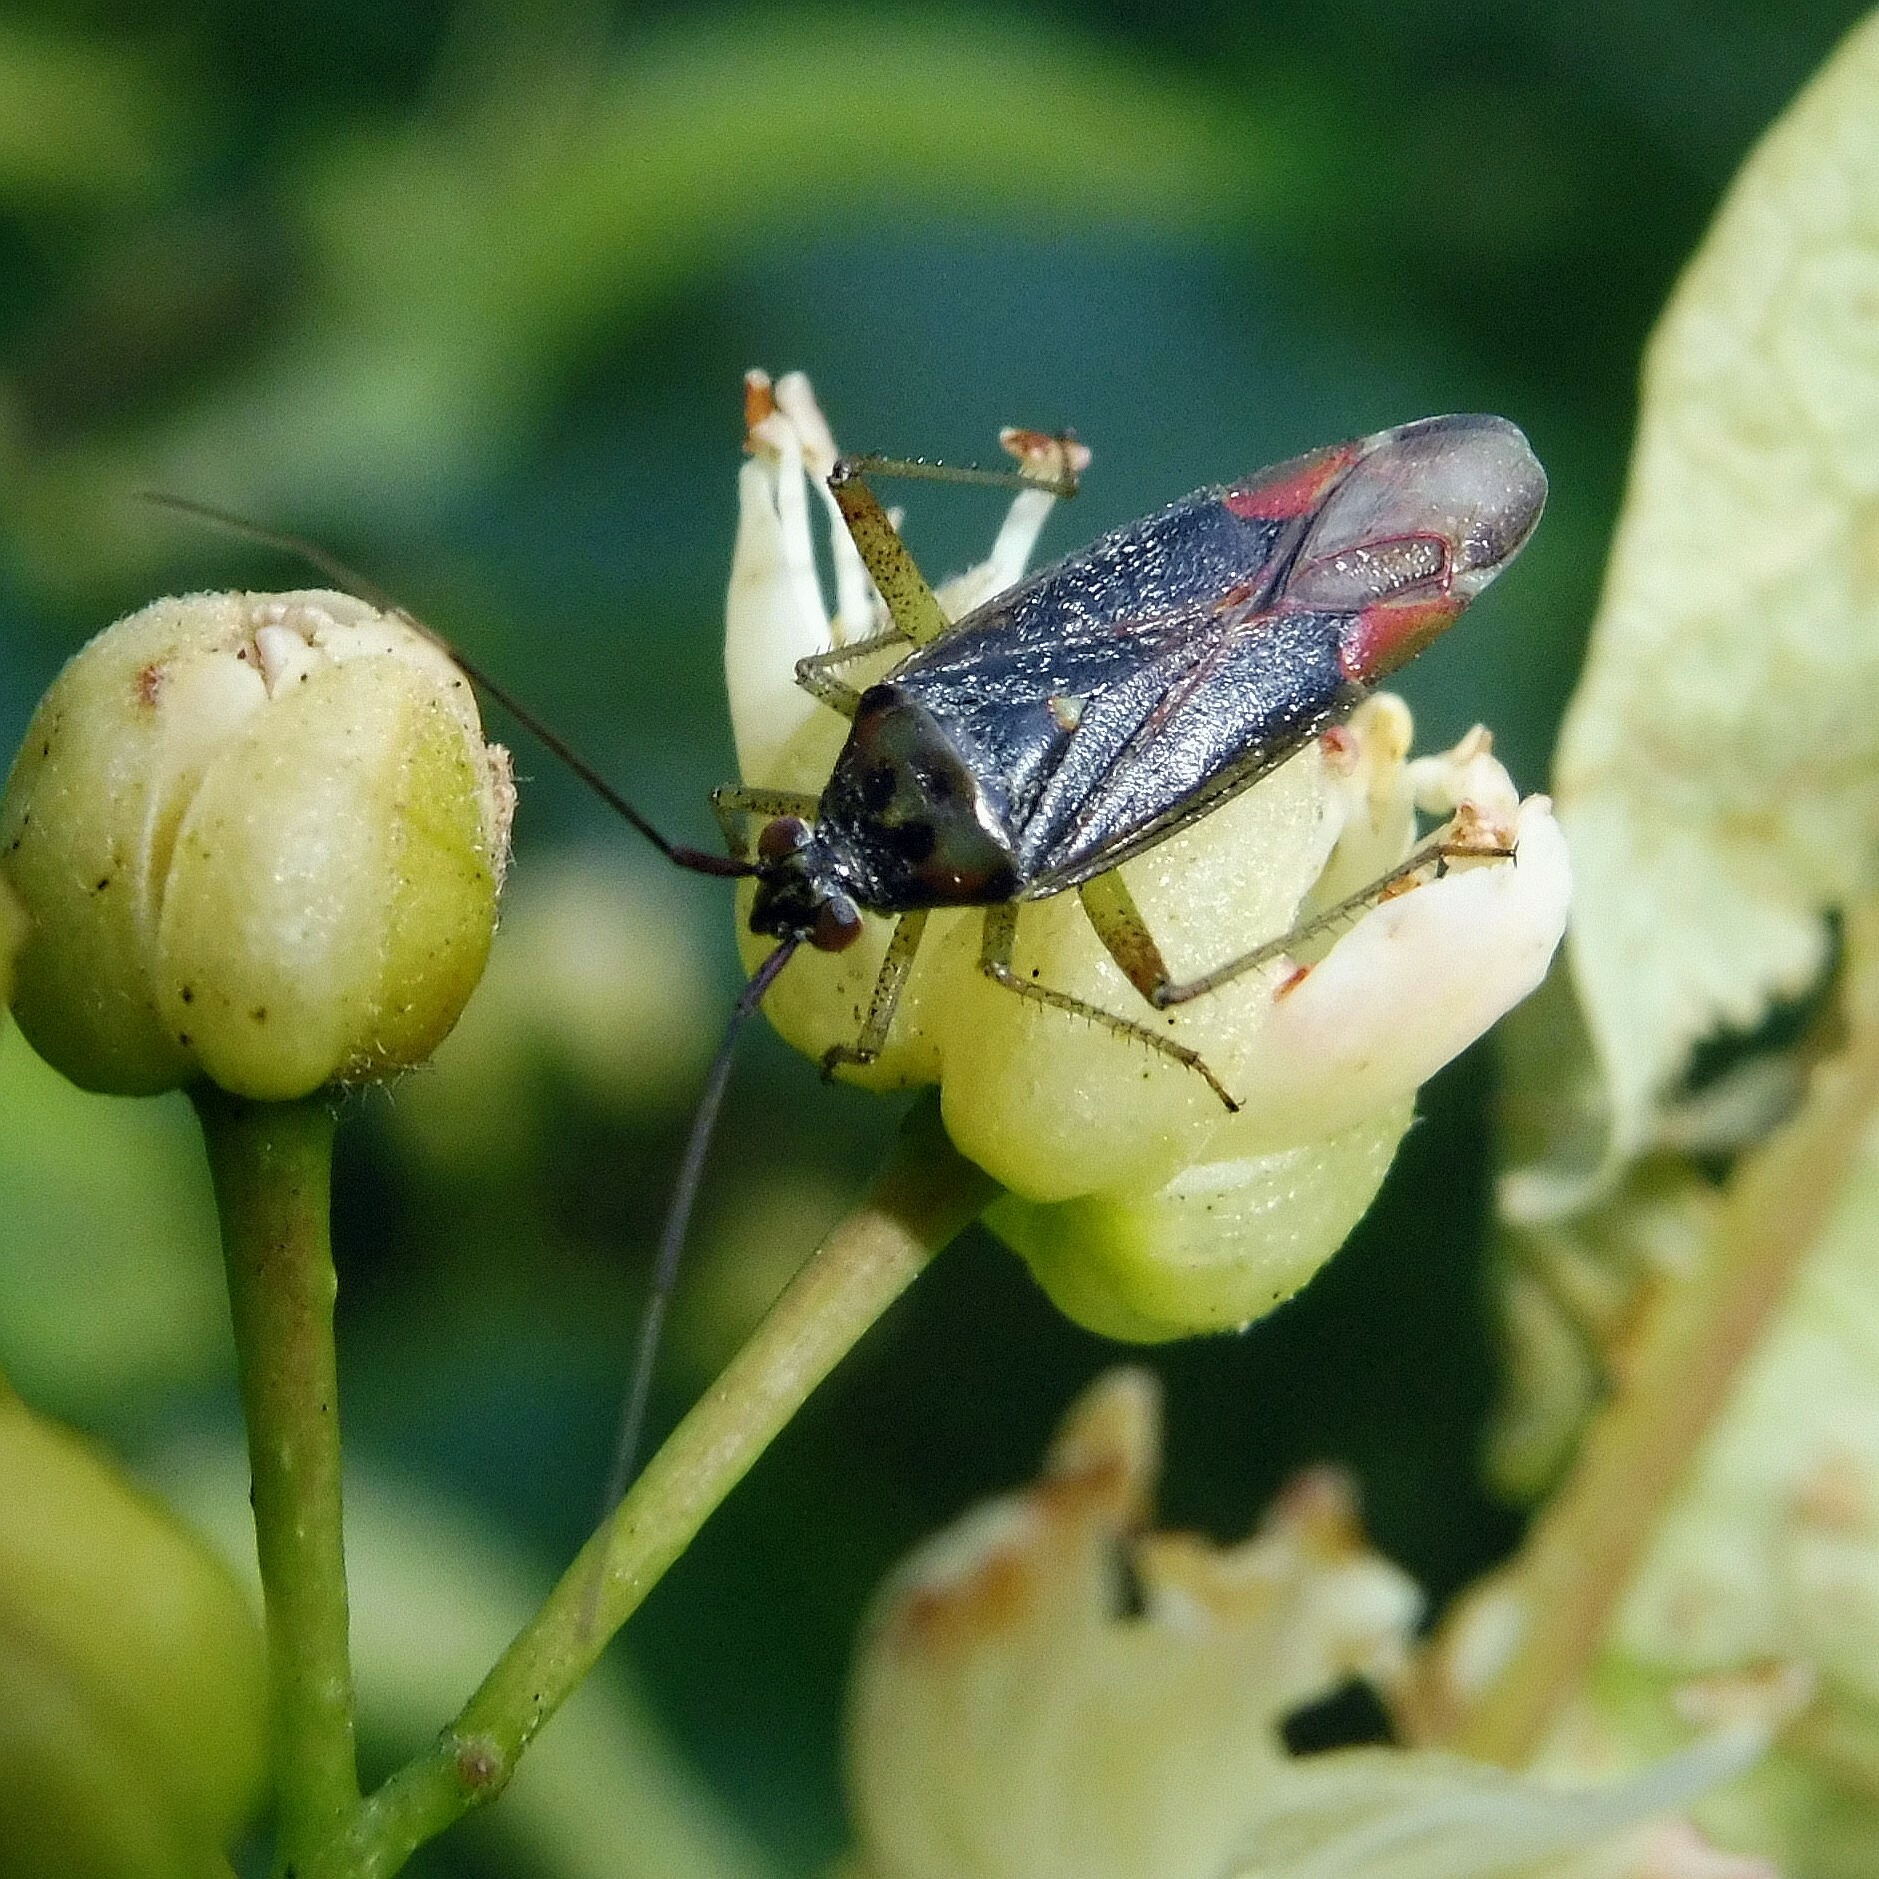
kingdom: Animalia
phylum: Arthropoda
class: Insecta
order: Hemiptera
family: Miridae
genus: Closterotomus
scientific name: Closterotomus trivialis
